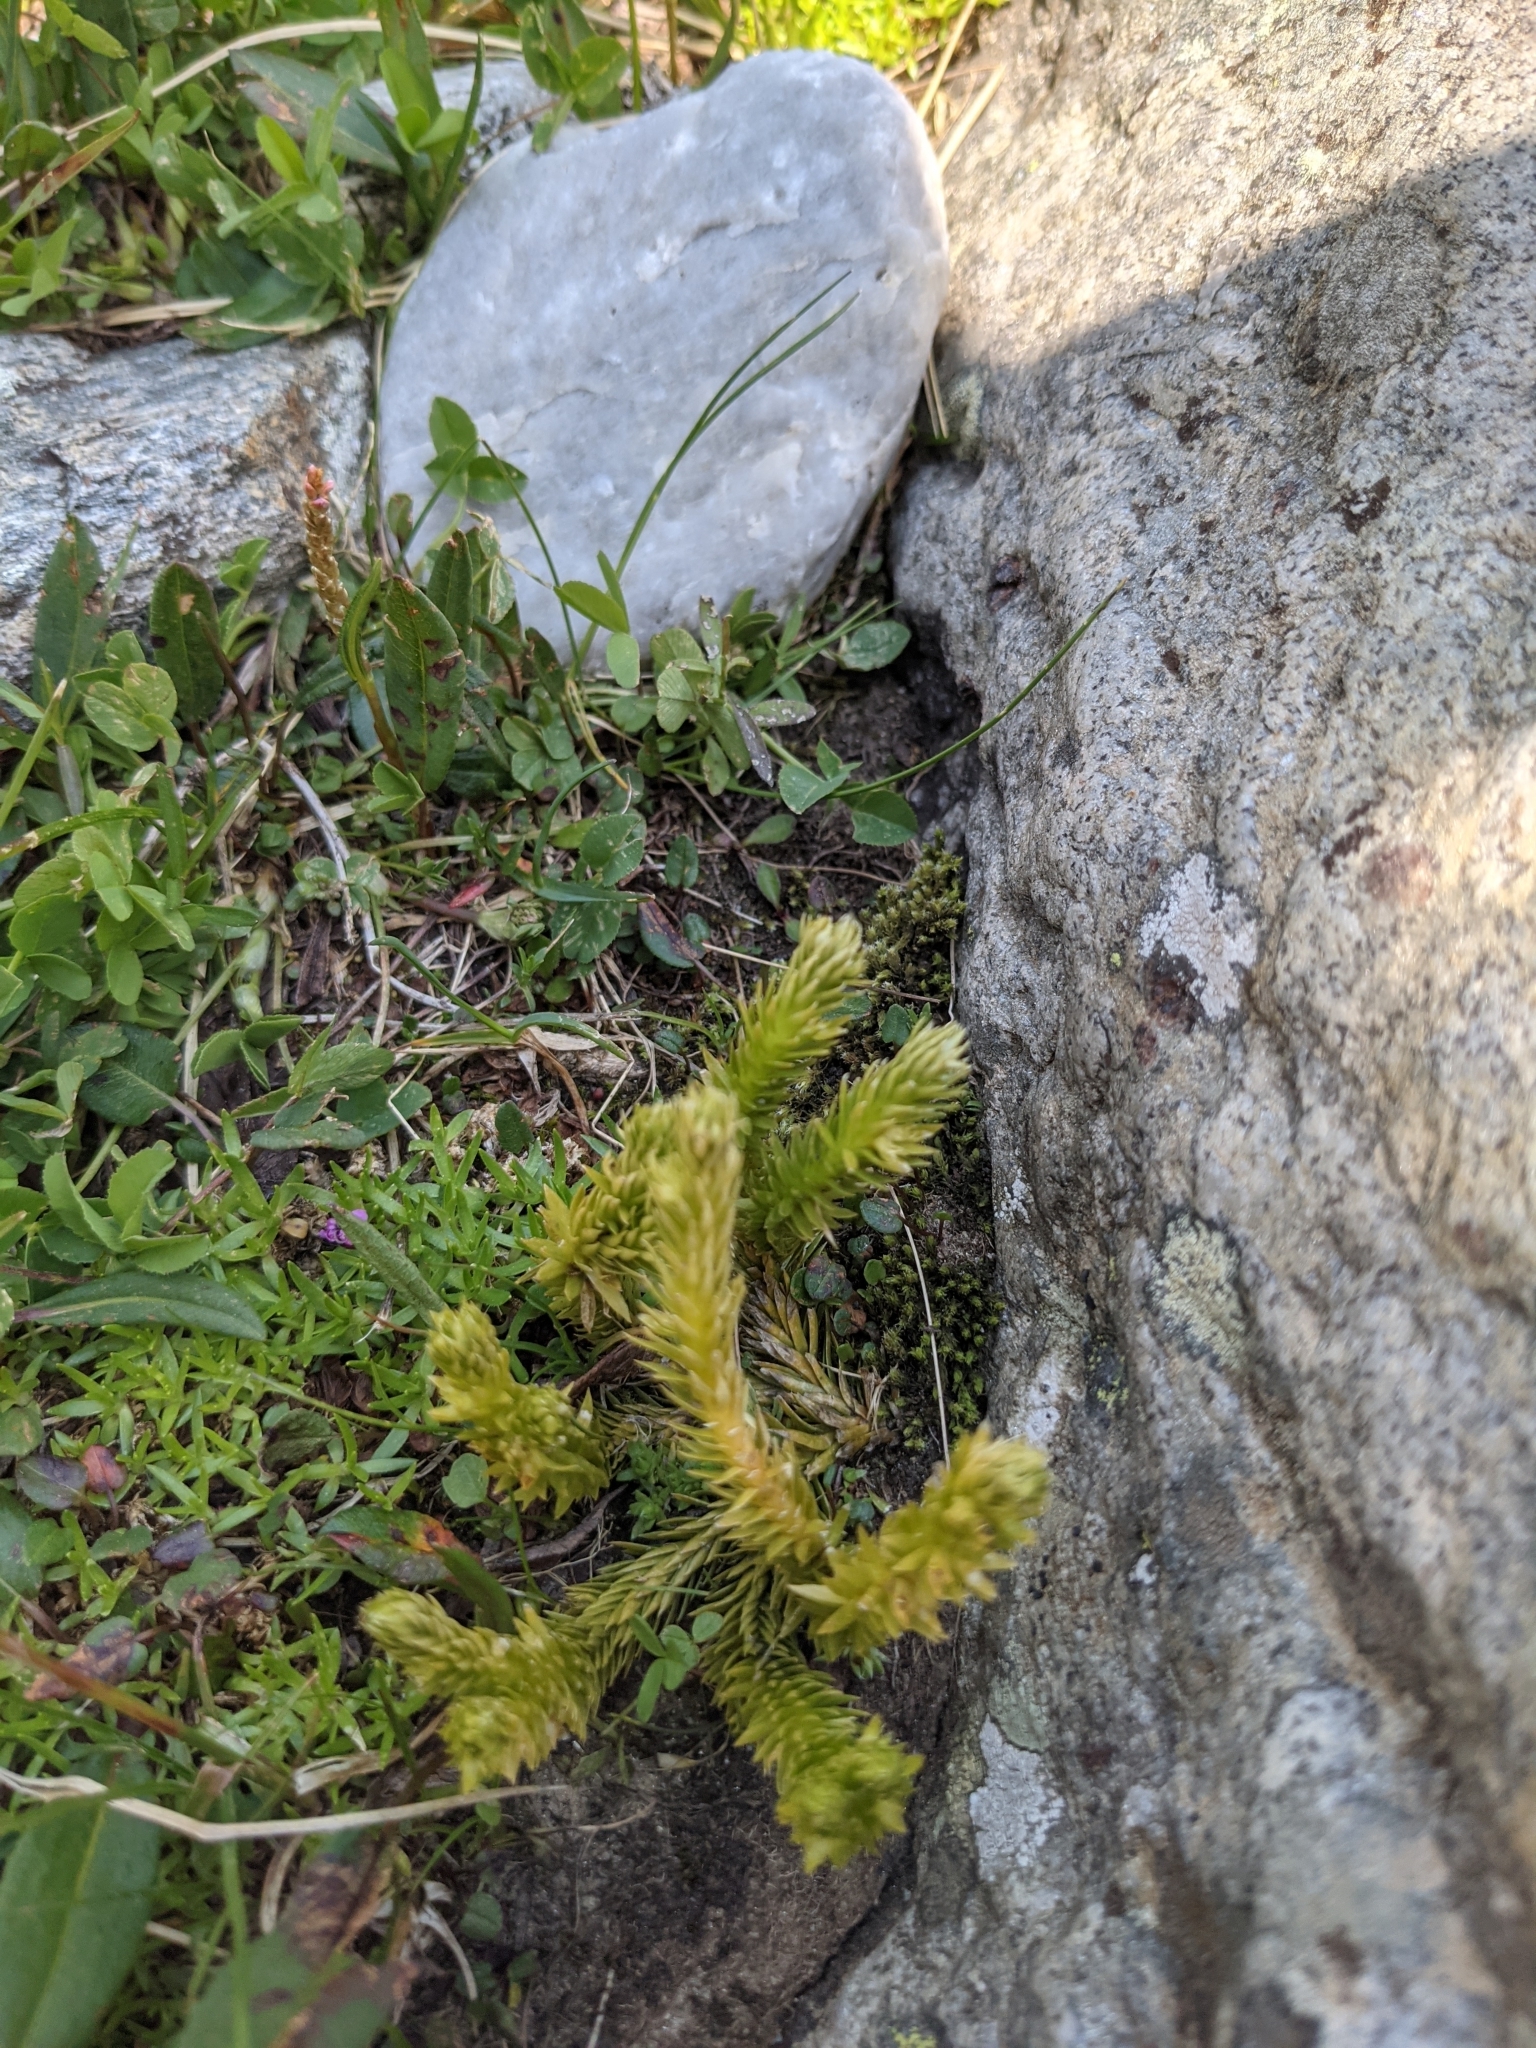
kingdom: Plantae
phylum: Tracheophyta
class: Lycopodiopsida
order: Lycopodiales
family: Lycopodiaceae
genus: Huperzia
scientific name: Huperzia selago
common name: Northern firmoss
